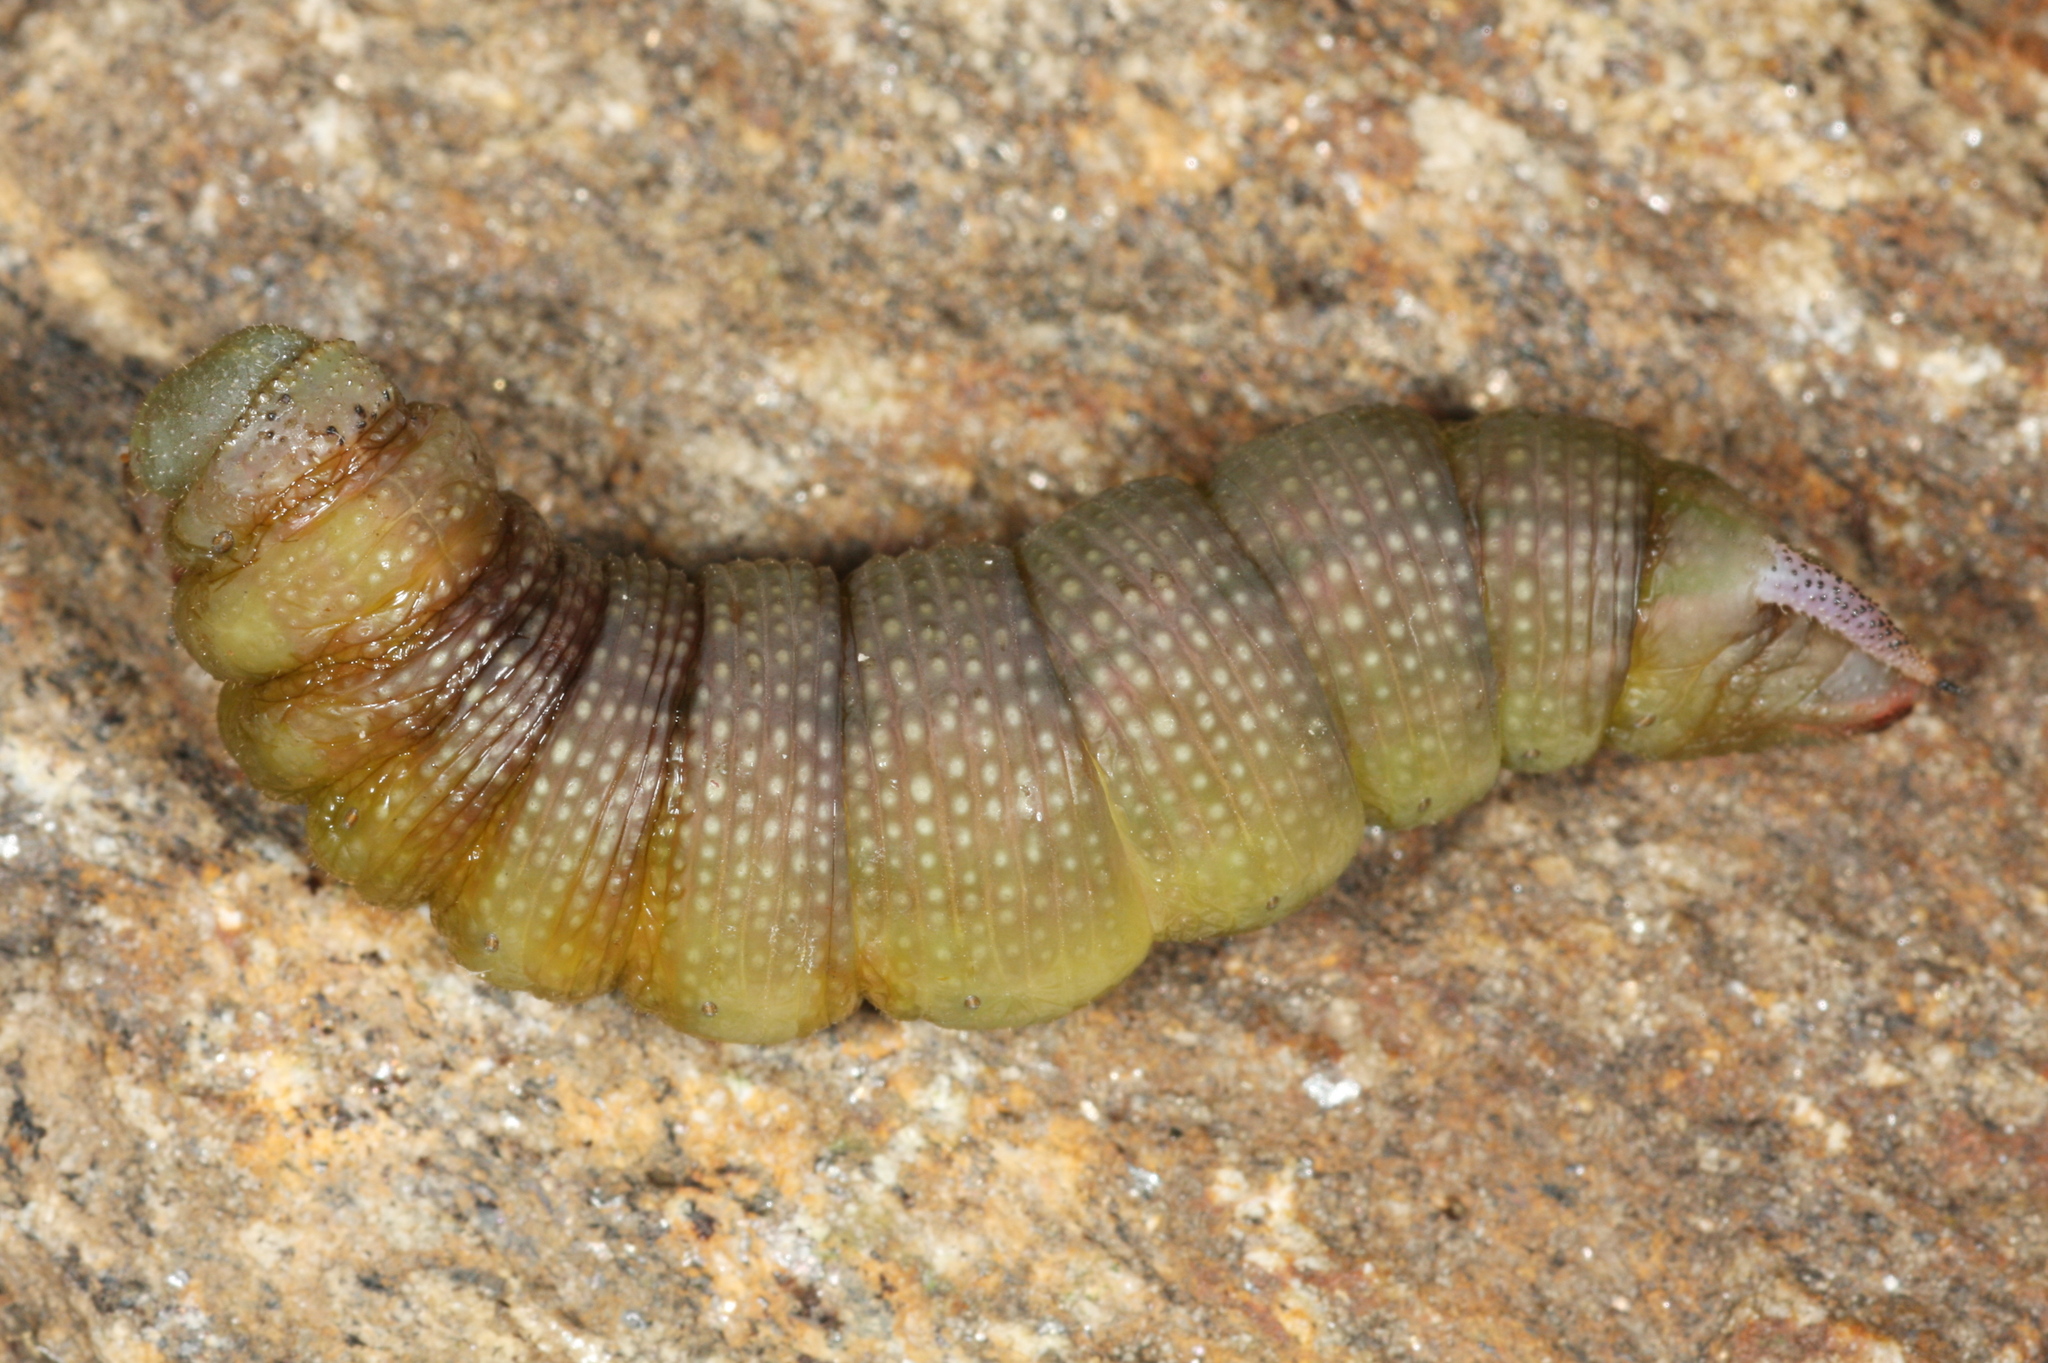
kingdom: Animalia
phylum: Arthropoda
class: Insecta
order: Lepidoptera
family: Sphingidae
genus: Hemaris
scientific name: Hemaris fuciformis
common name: Broad-bordered bee hawk-moth
